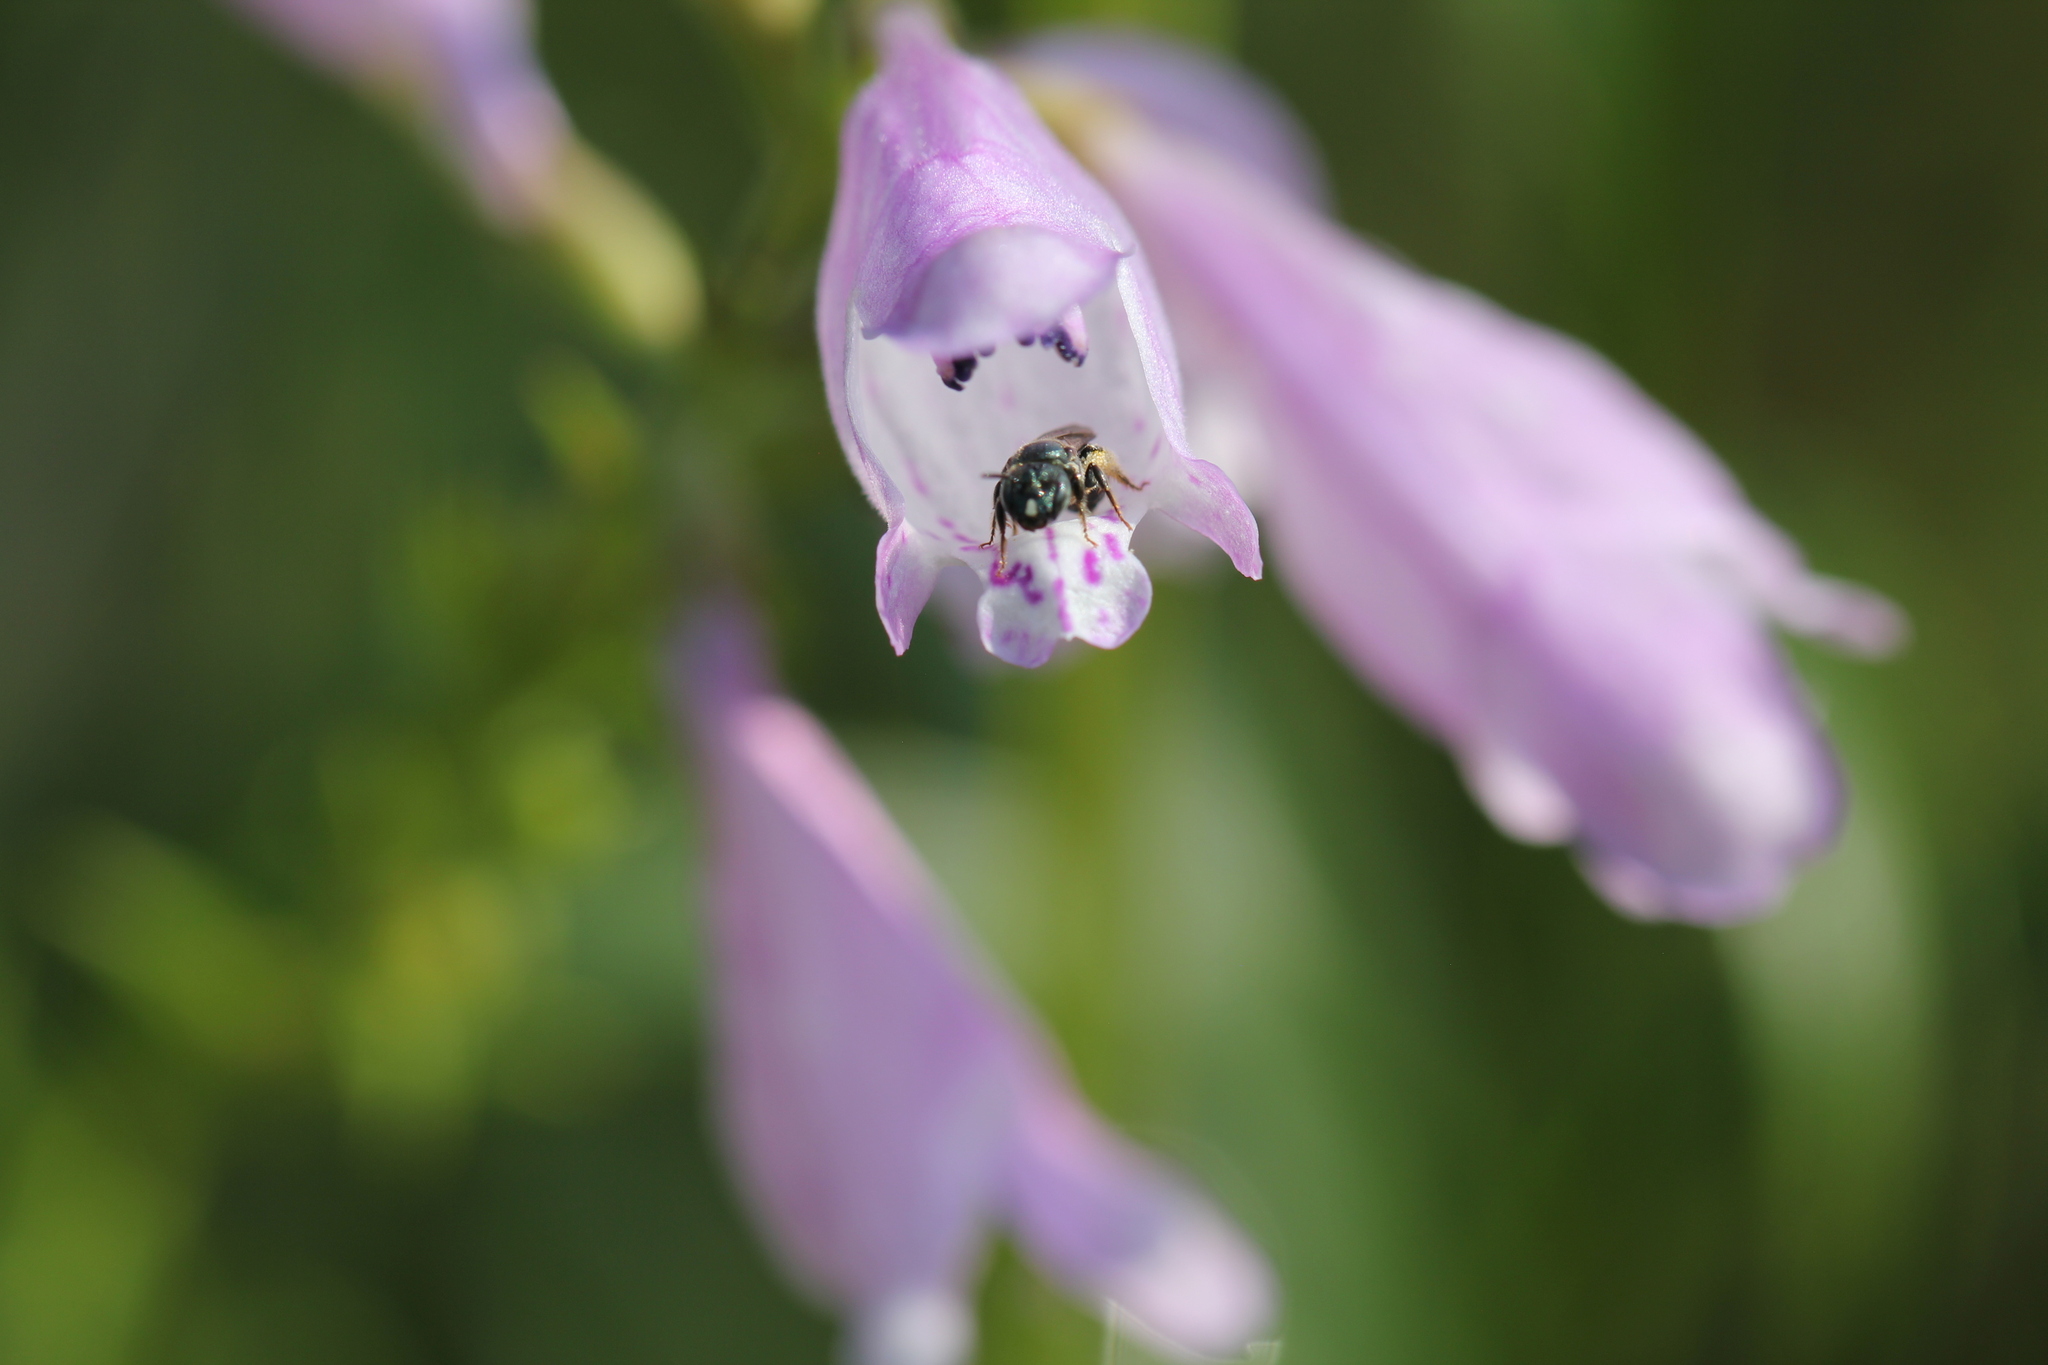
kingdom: Animalia
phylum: Arthropoda
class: Insecta
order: Hymenoptera
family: Apidae
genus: Zadontomerus
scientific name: Zadontomerus
